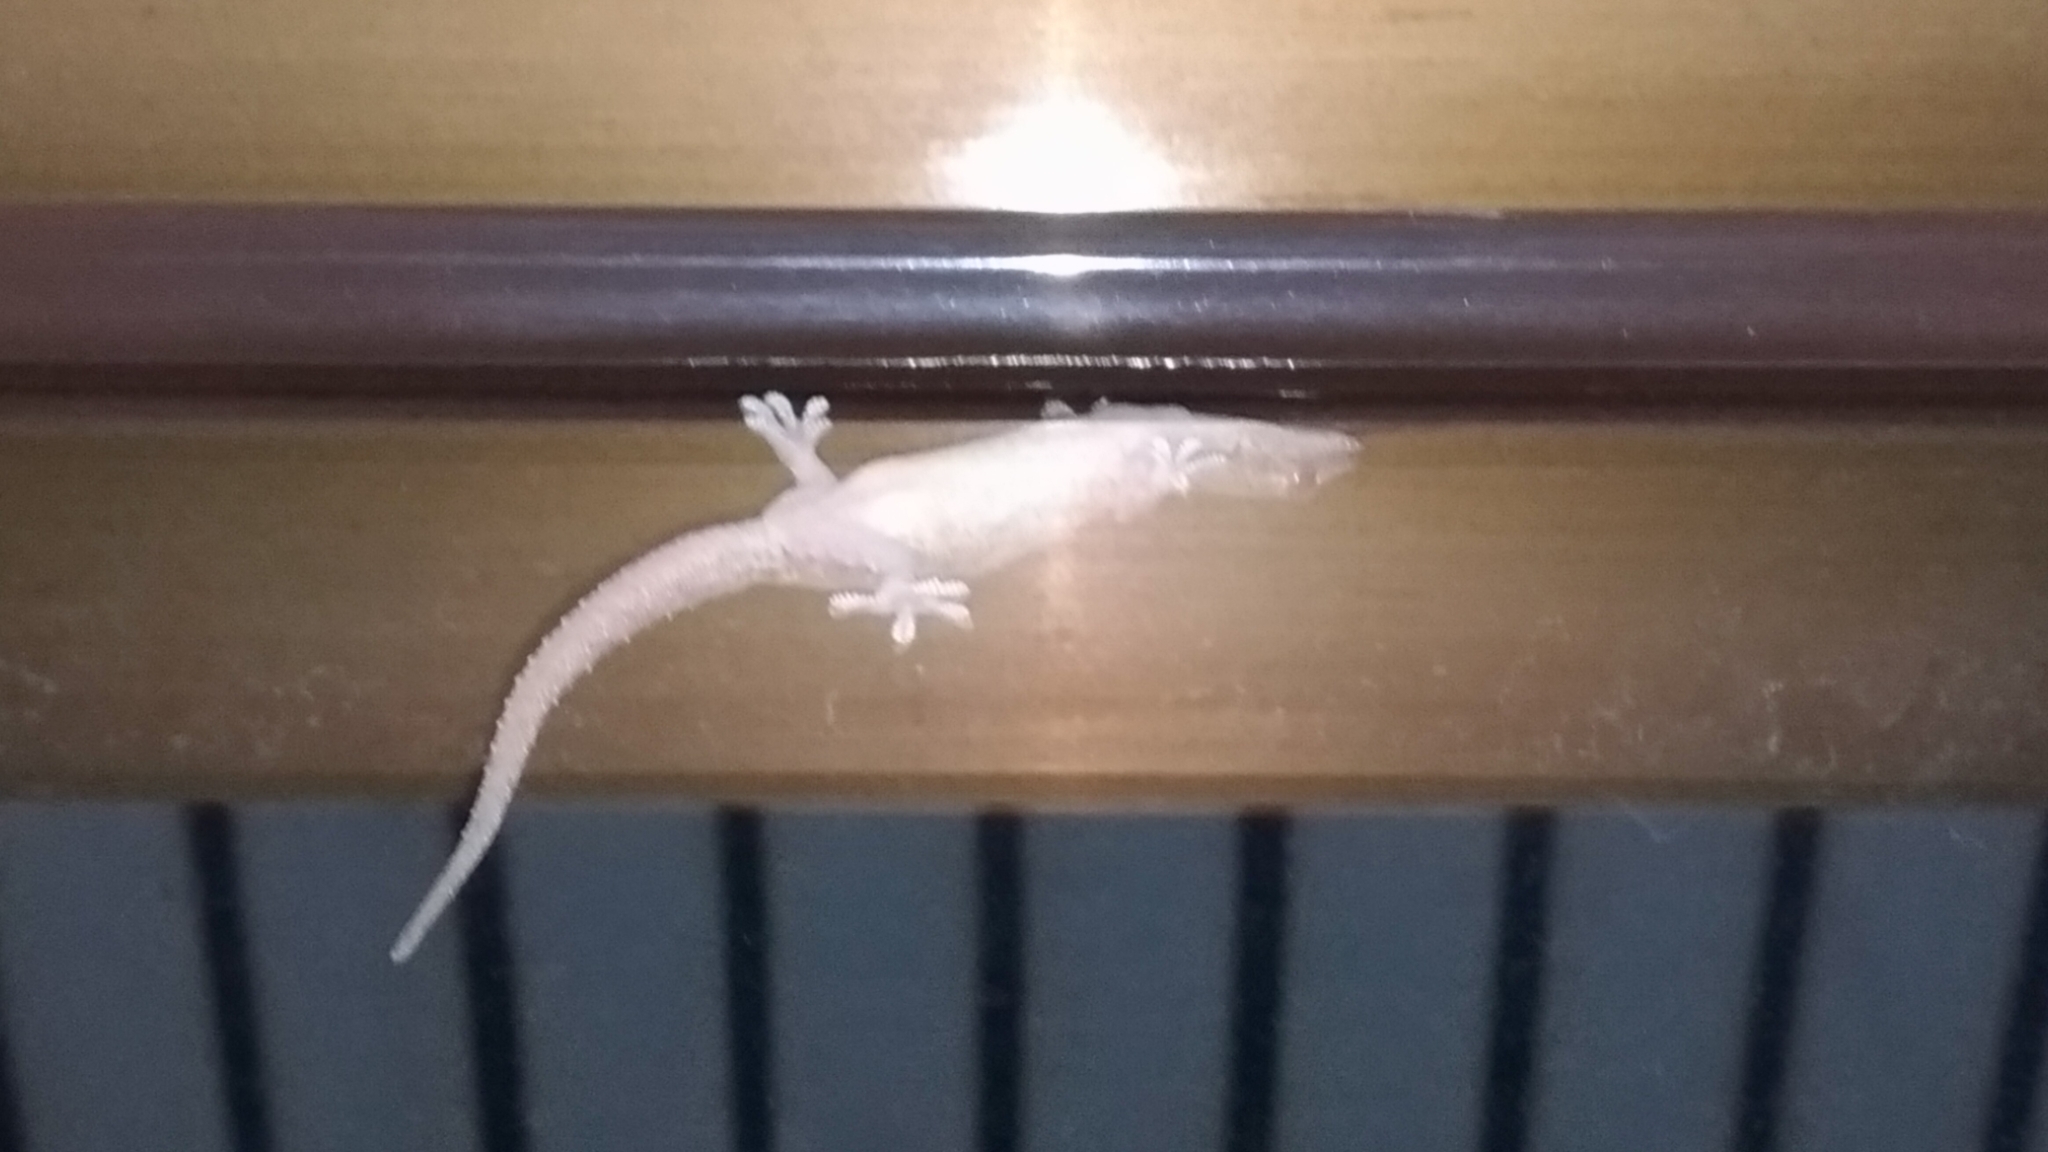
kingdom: Animalia
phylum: Chordata
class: Squamata
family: Gekkonidae
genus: Hemidactylus
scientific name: Hemidactylus frenatus
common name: Common house gecko
